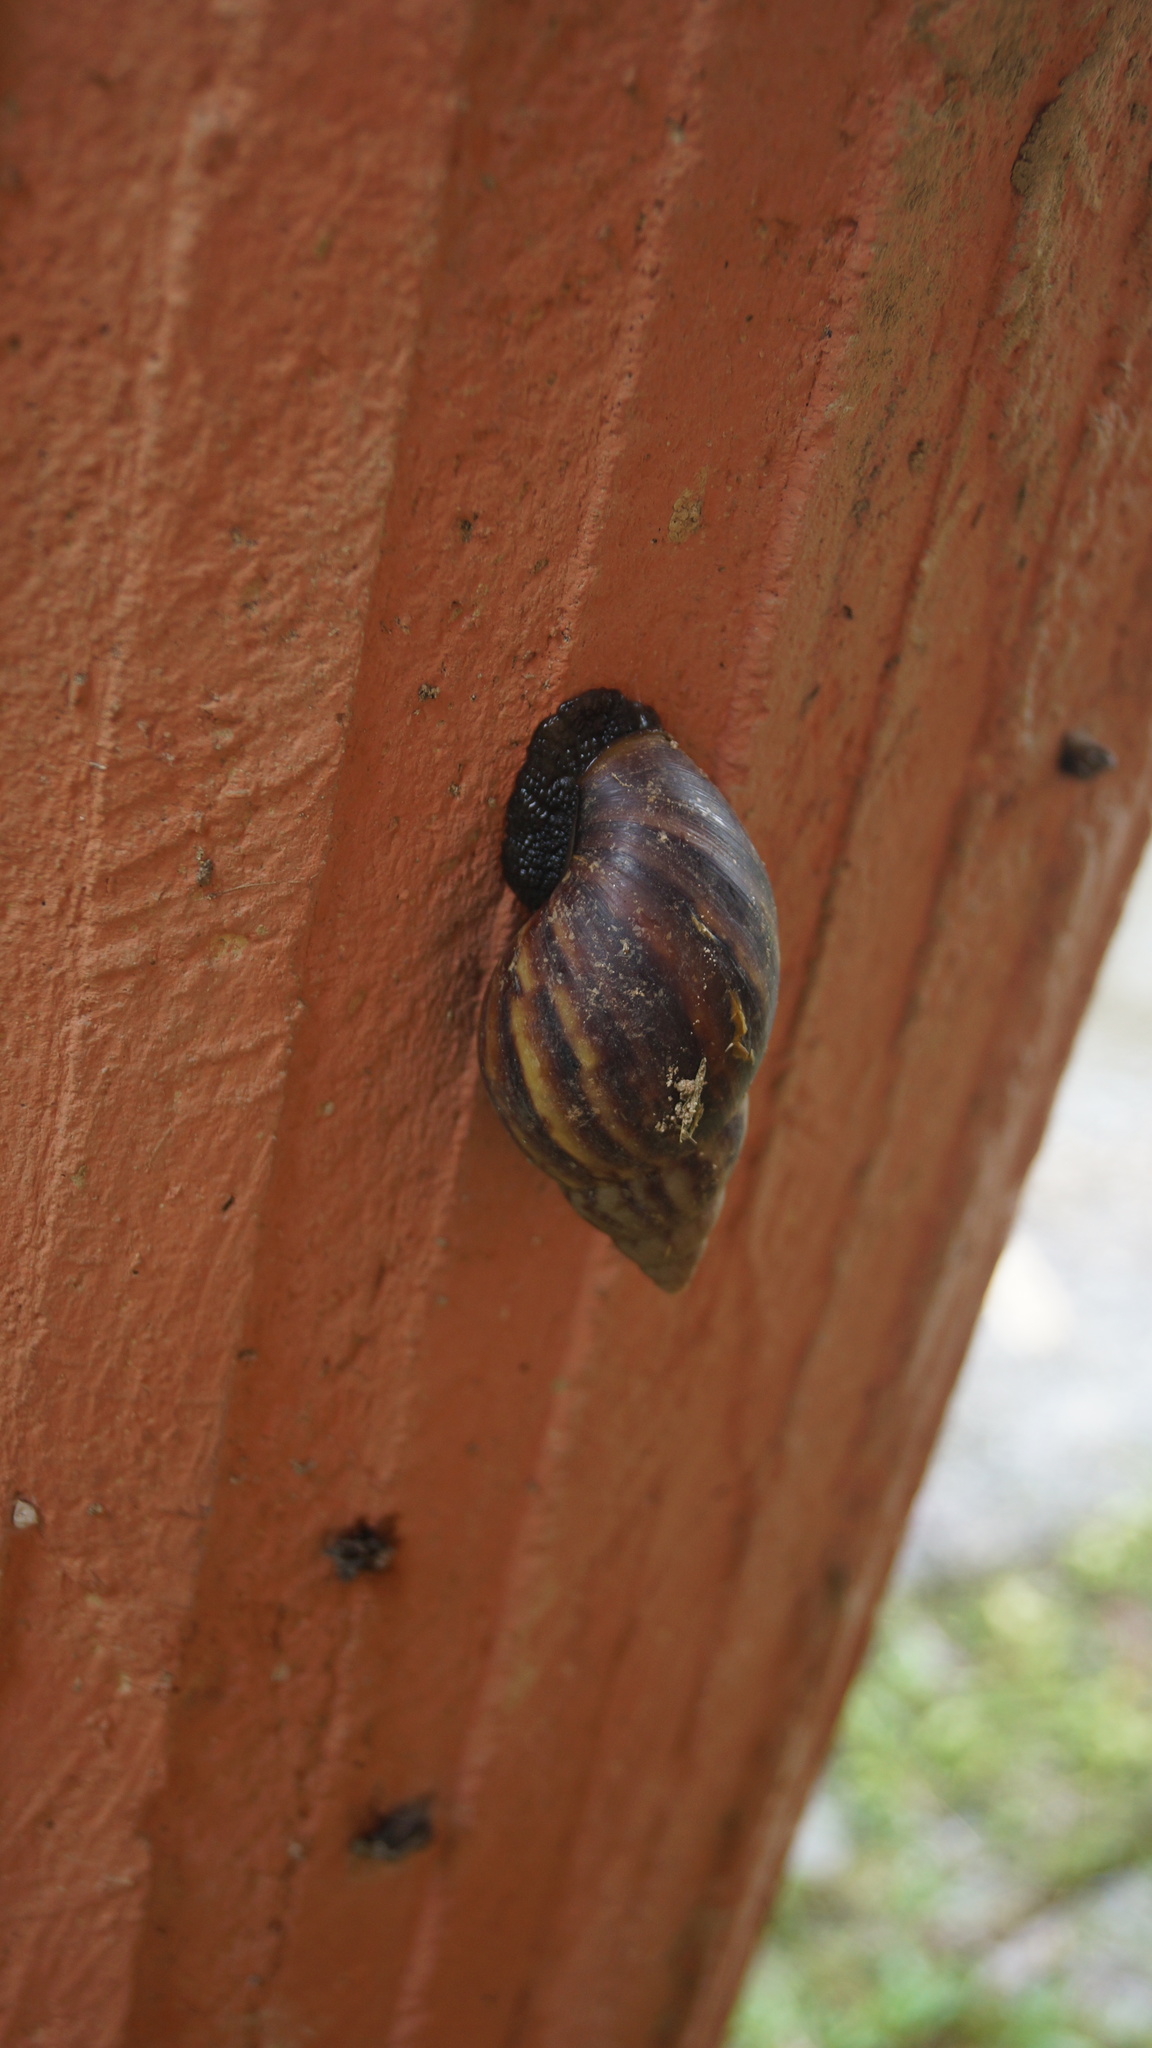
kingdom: Animalia
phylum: Mollusca
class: Gastropoda
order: Stylommatophora
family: Achatinidae
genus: Lissachatina
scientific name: Lissachatina fulica
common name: Giant african snail
